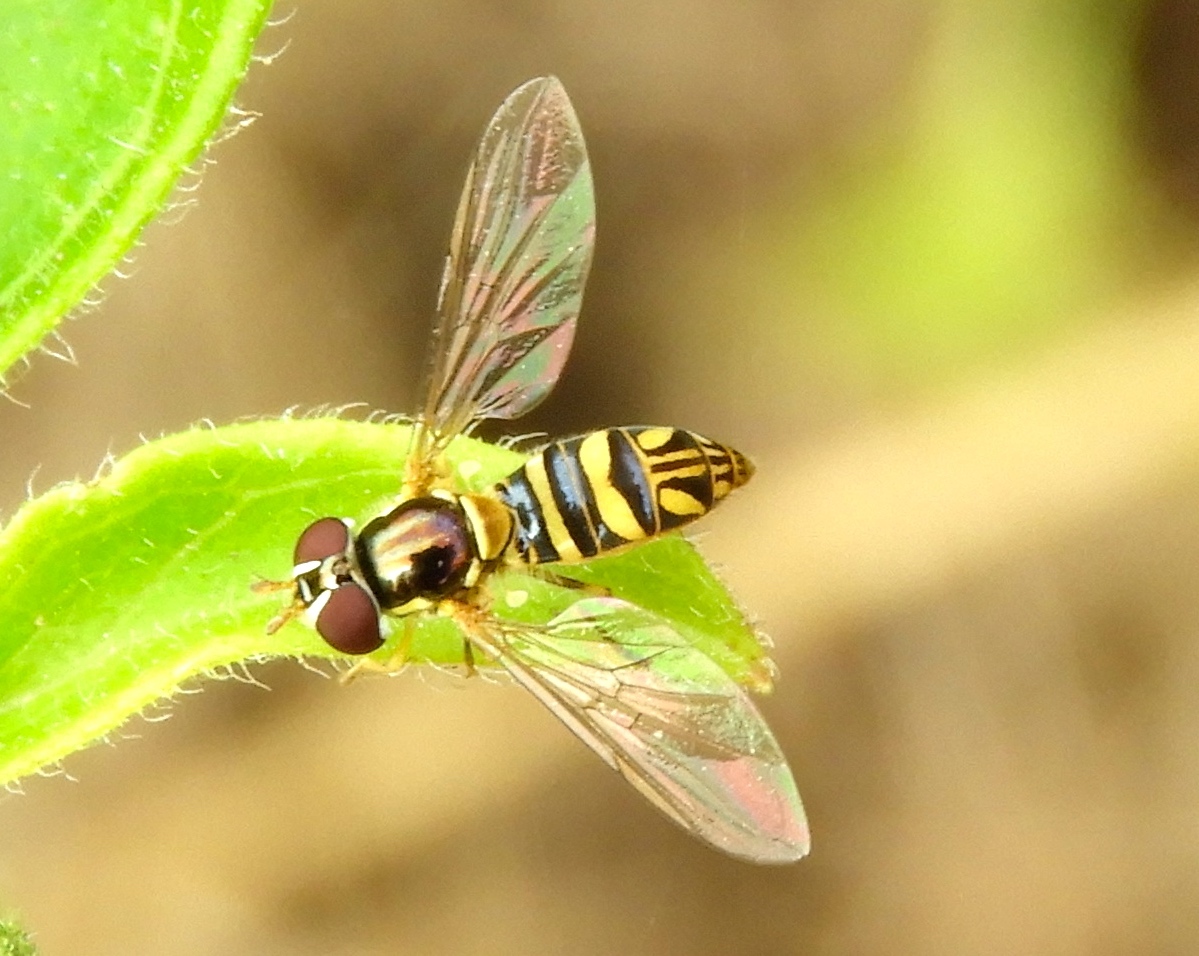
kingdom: Animalia
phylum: Arthropoda
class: Insecta
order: Diptera
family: Syrphidae
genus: Allograpta
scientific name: Allograpta obliqua
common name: Common oblique syrphid
